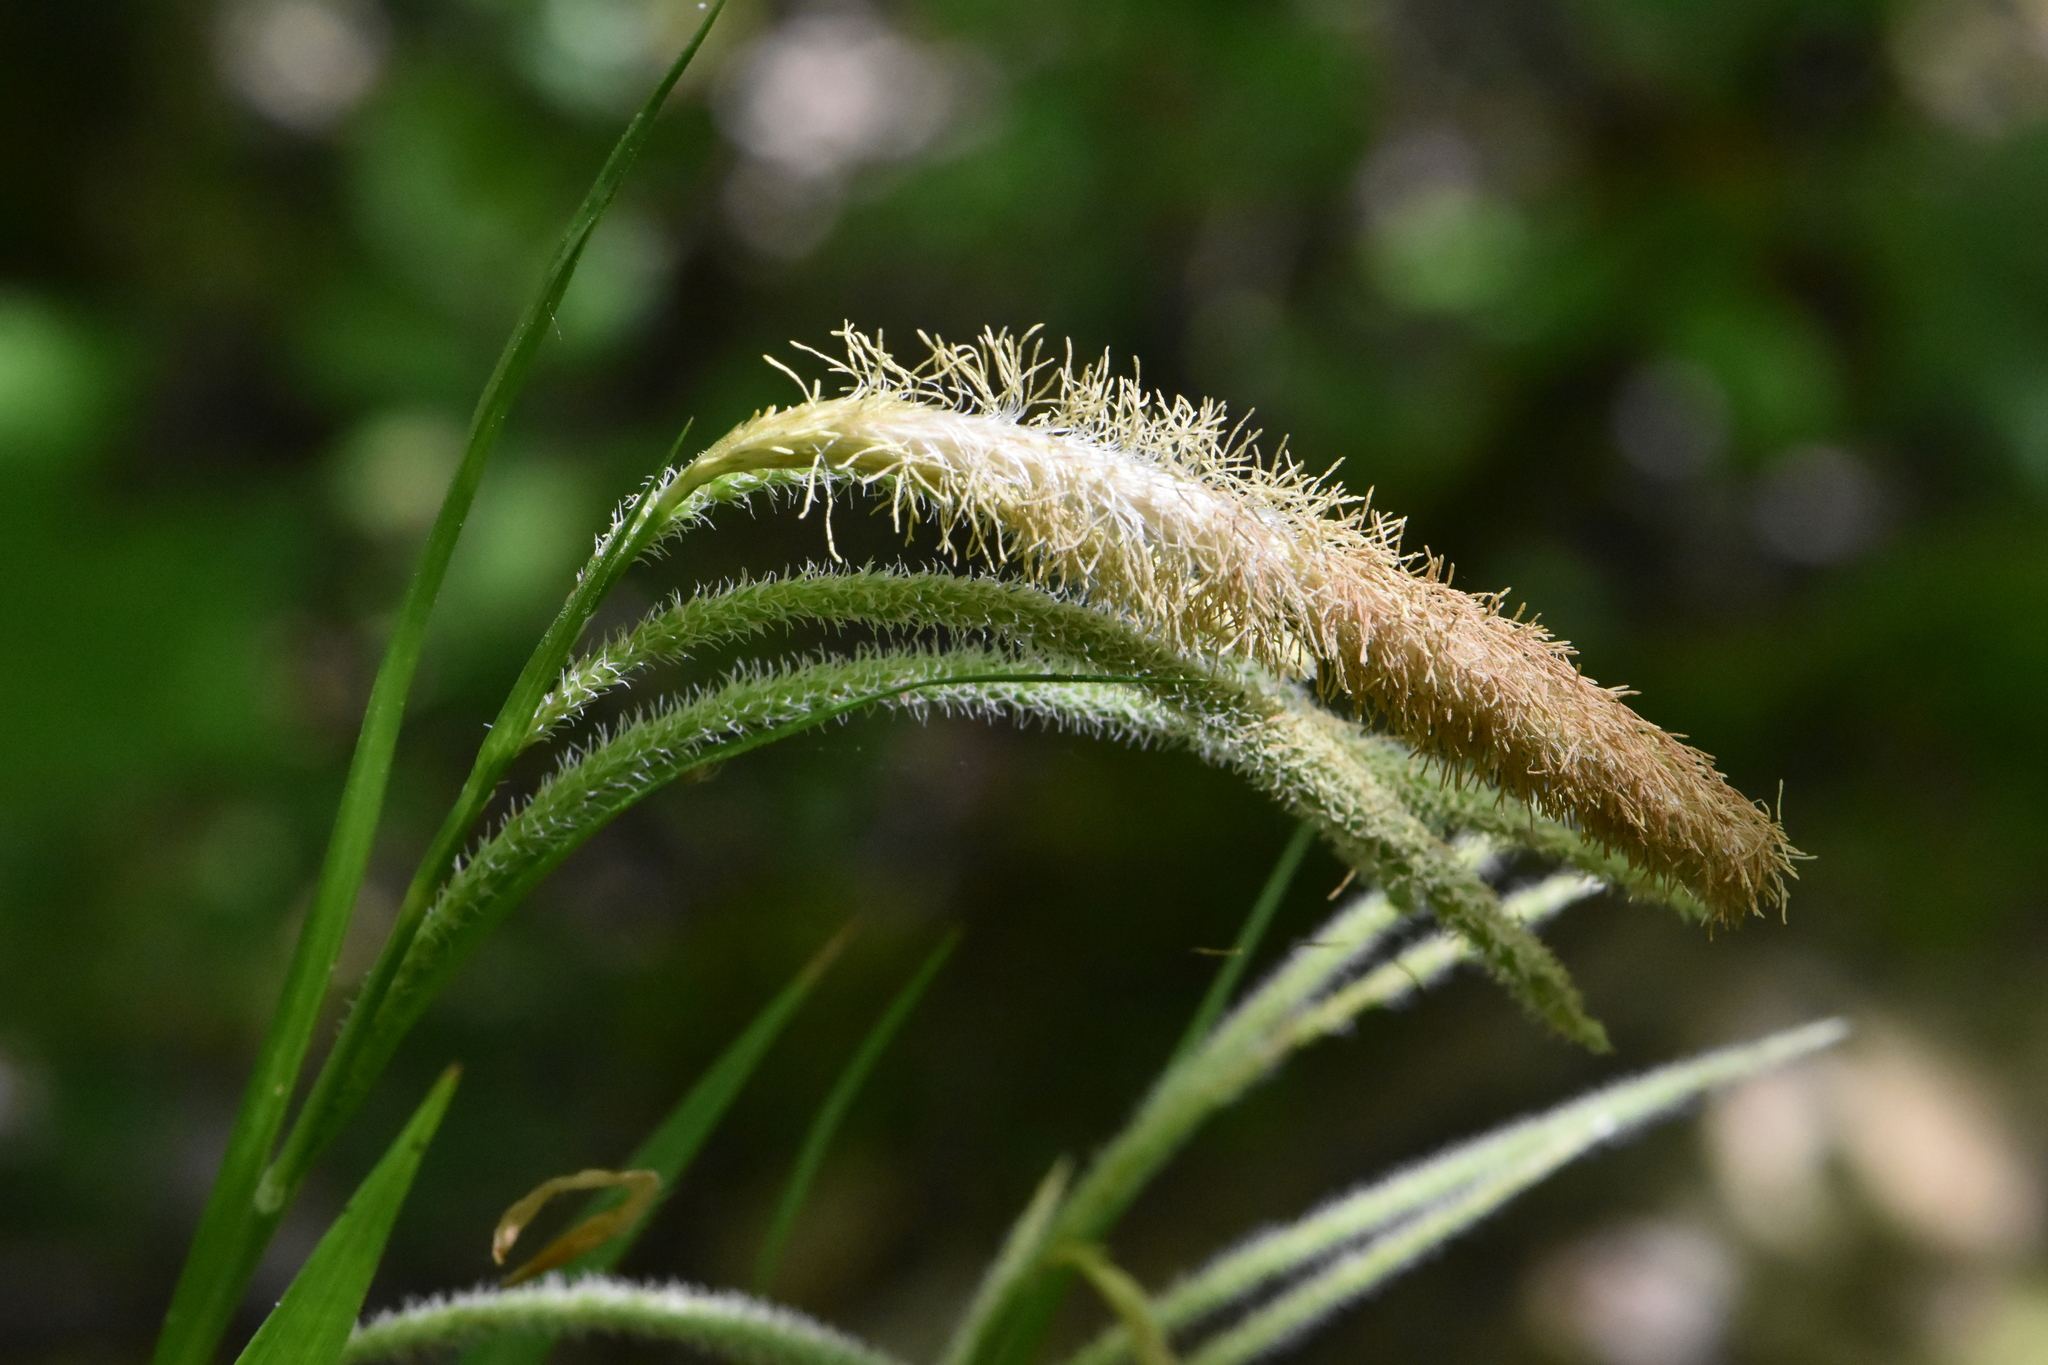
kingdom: Plantae
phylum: Tracheophyta
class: Liliopsida
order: Poales
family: Cyperaceae
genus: Carex
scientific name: Carex pendula
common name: Pendulous sedge
